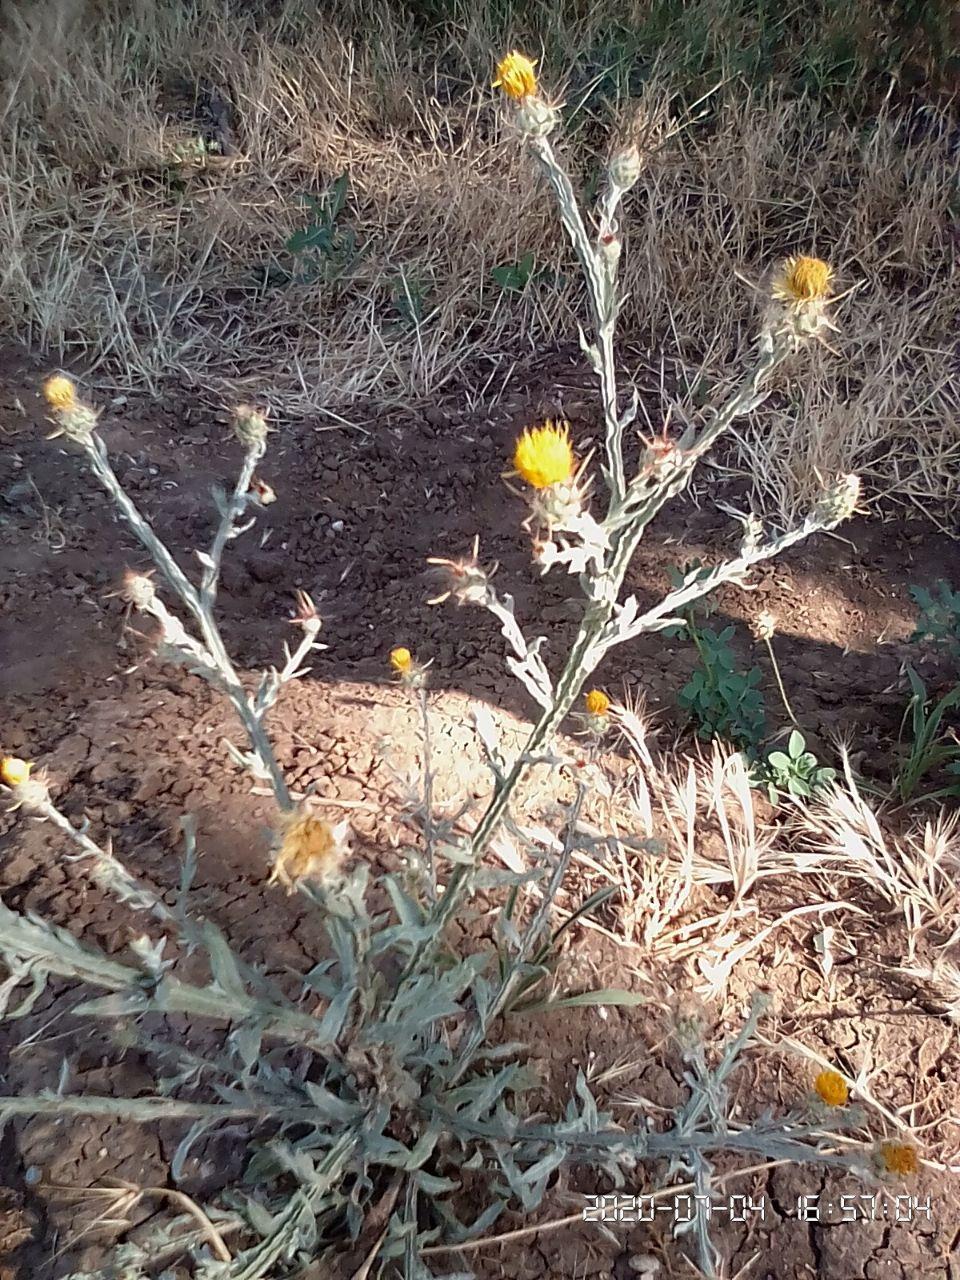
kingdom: Plantae
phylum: Tracheophyta
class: Magnoliopsida
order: Asterales
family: Asteraceae
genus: Centaurea
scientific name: Centaurea solstitialis
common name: Yellow star-thistle
